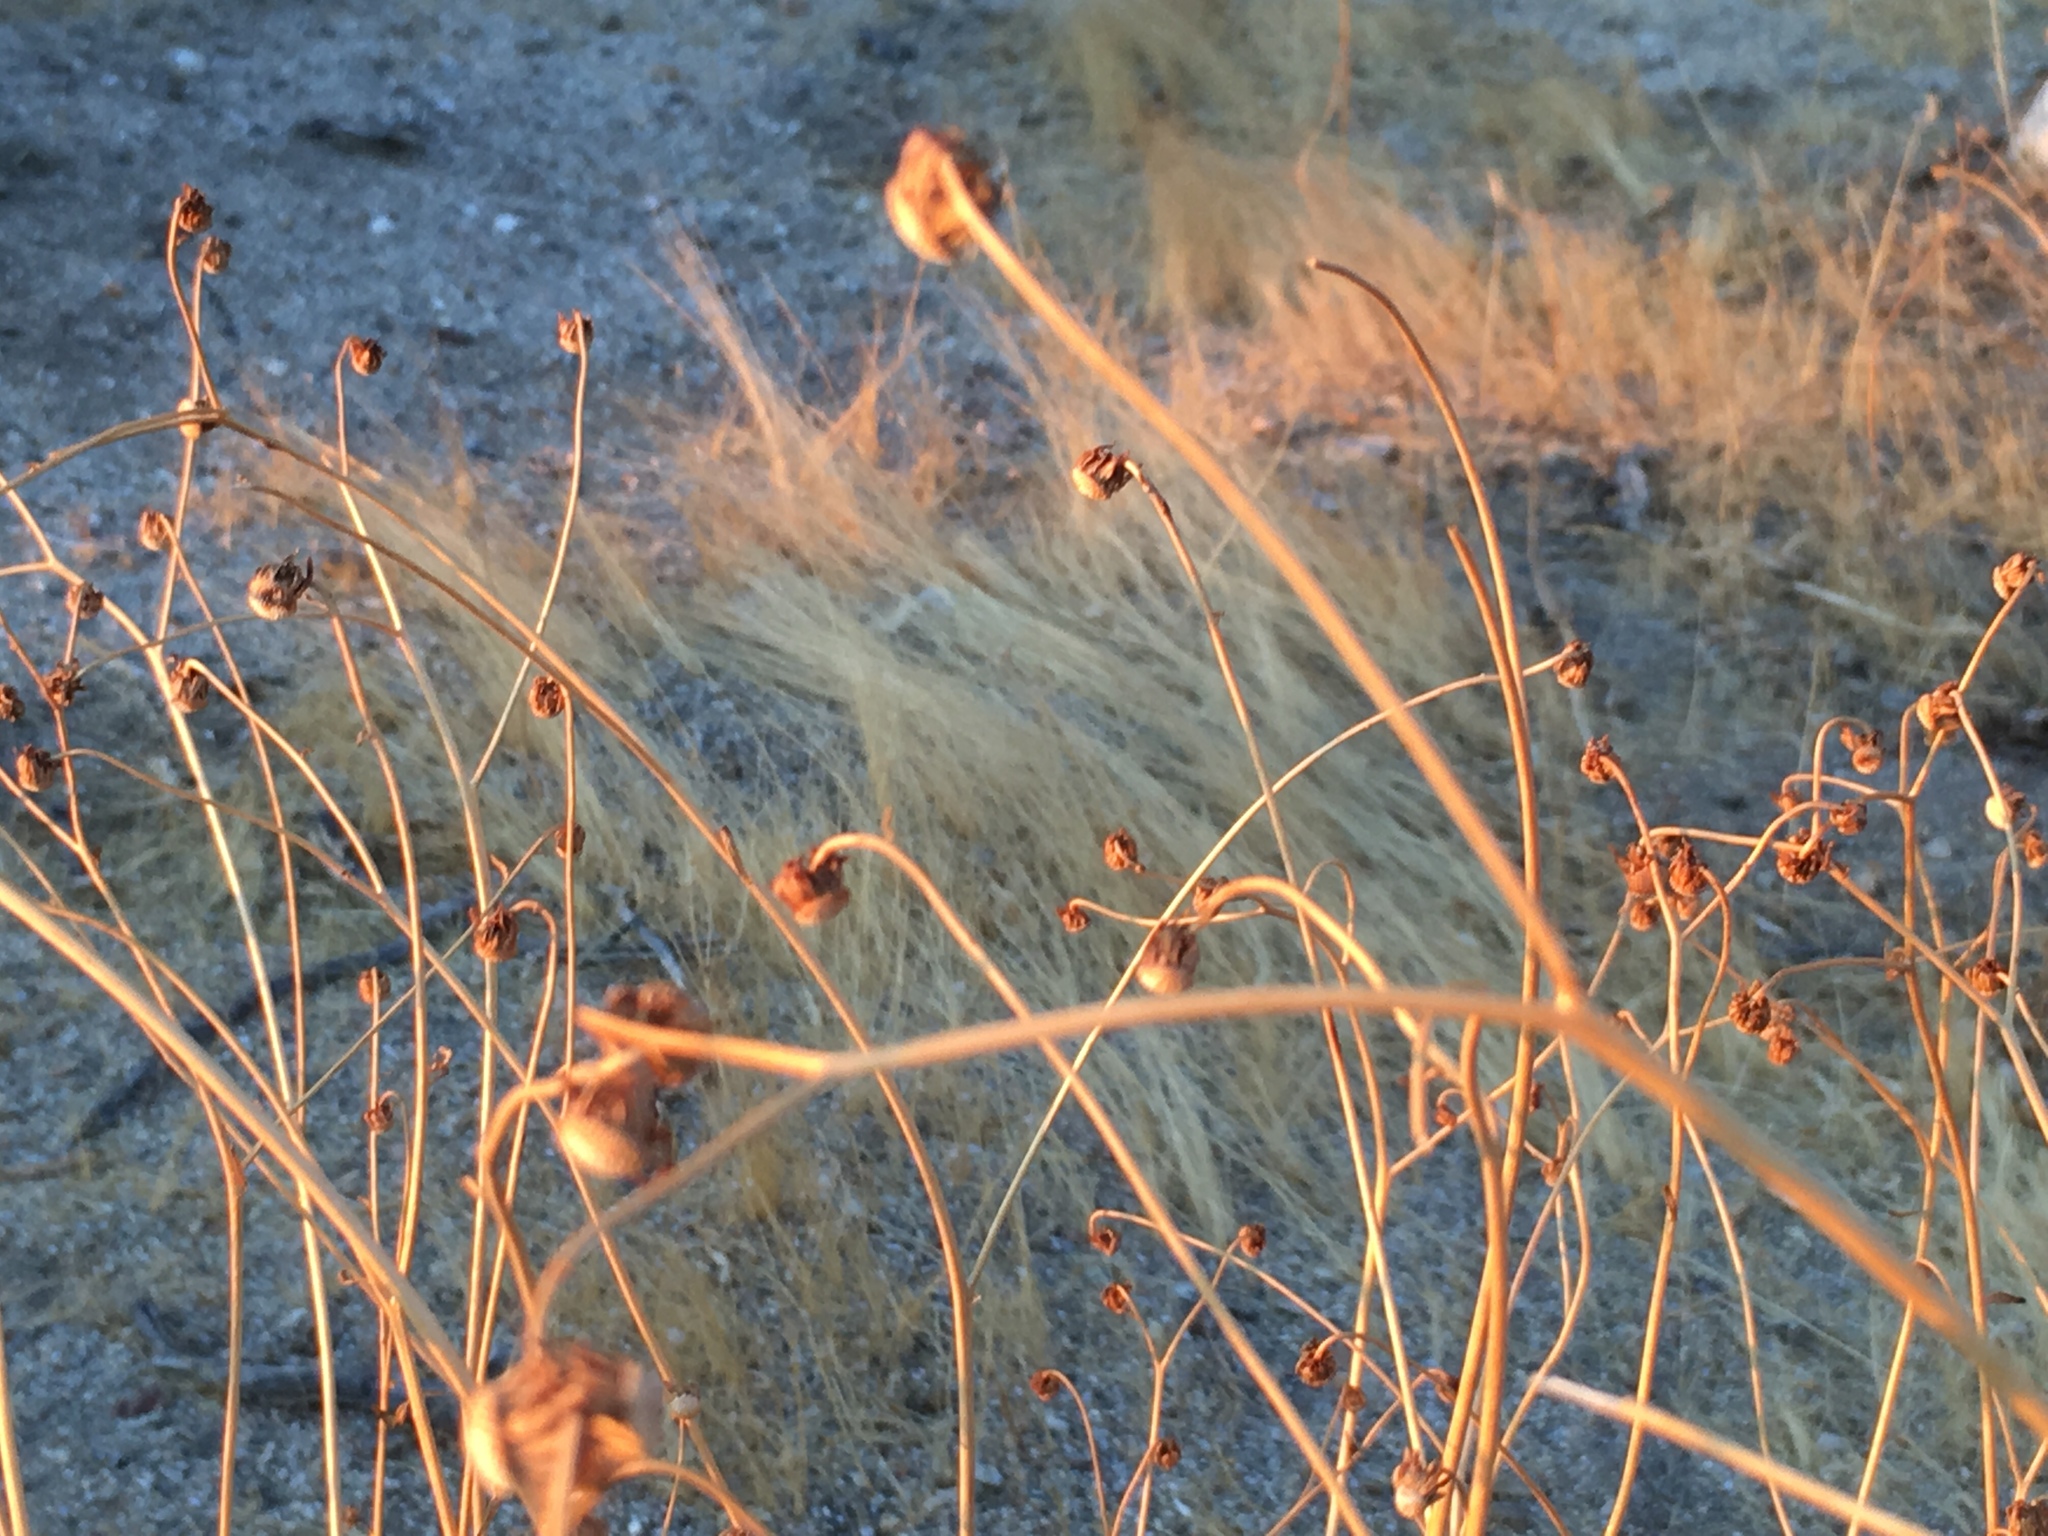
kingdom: Plantae
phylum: Tracheophyta
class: Magnoliopsida
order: Asterales
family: Asteraceae
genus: Encelia
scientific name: Encelia farinosa
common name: Brittlebush
